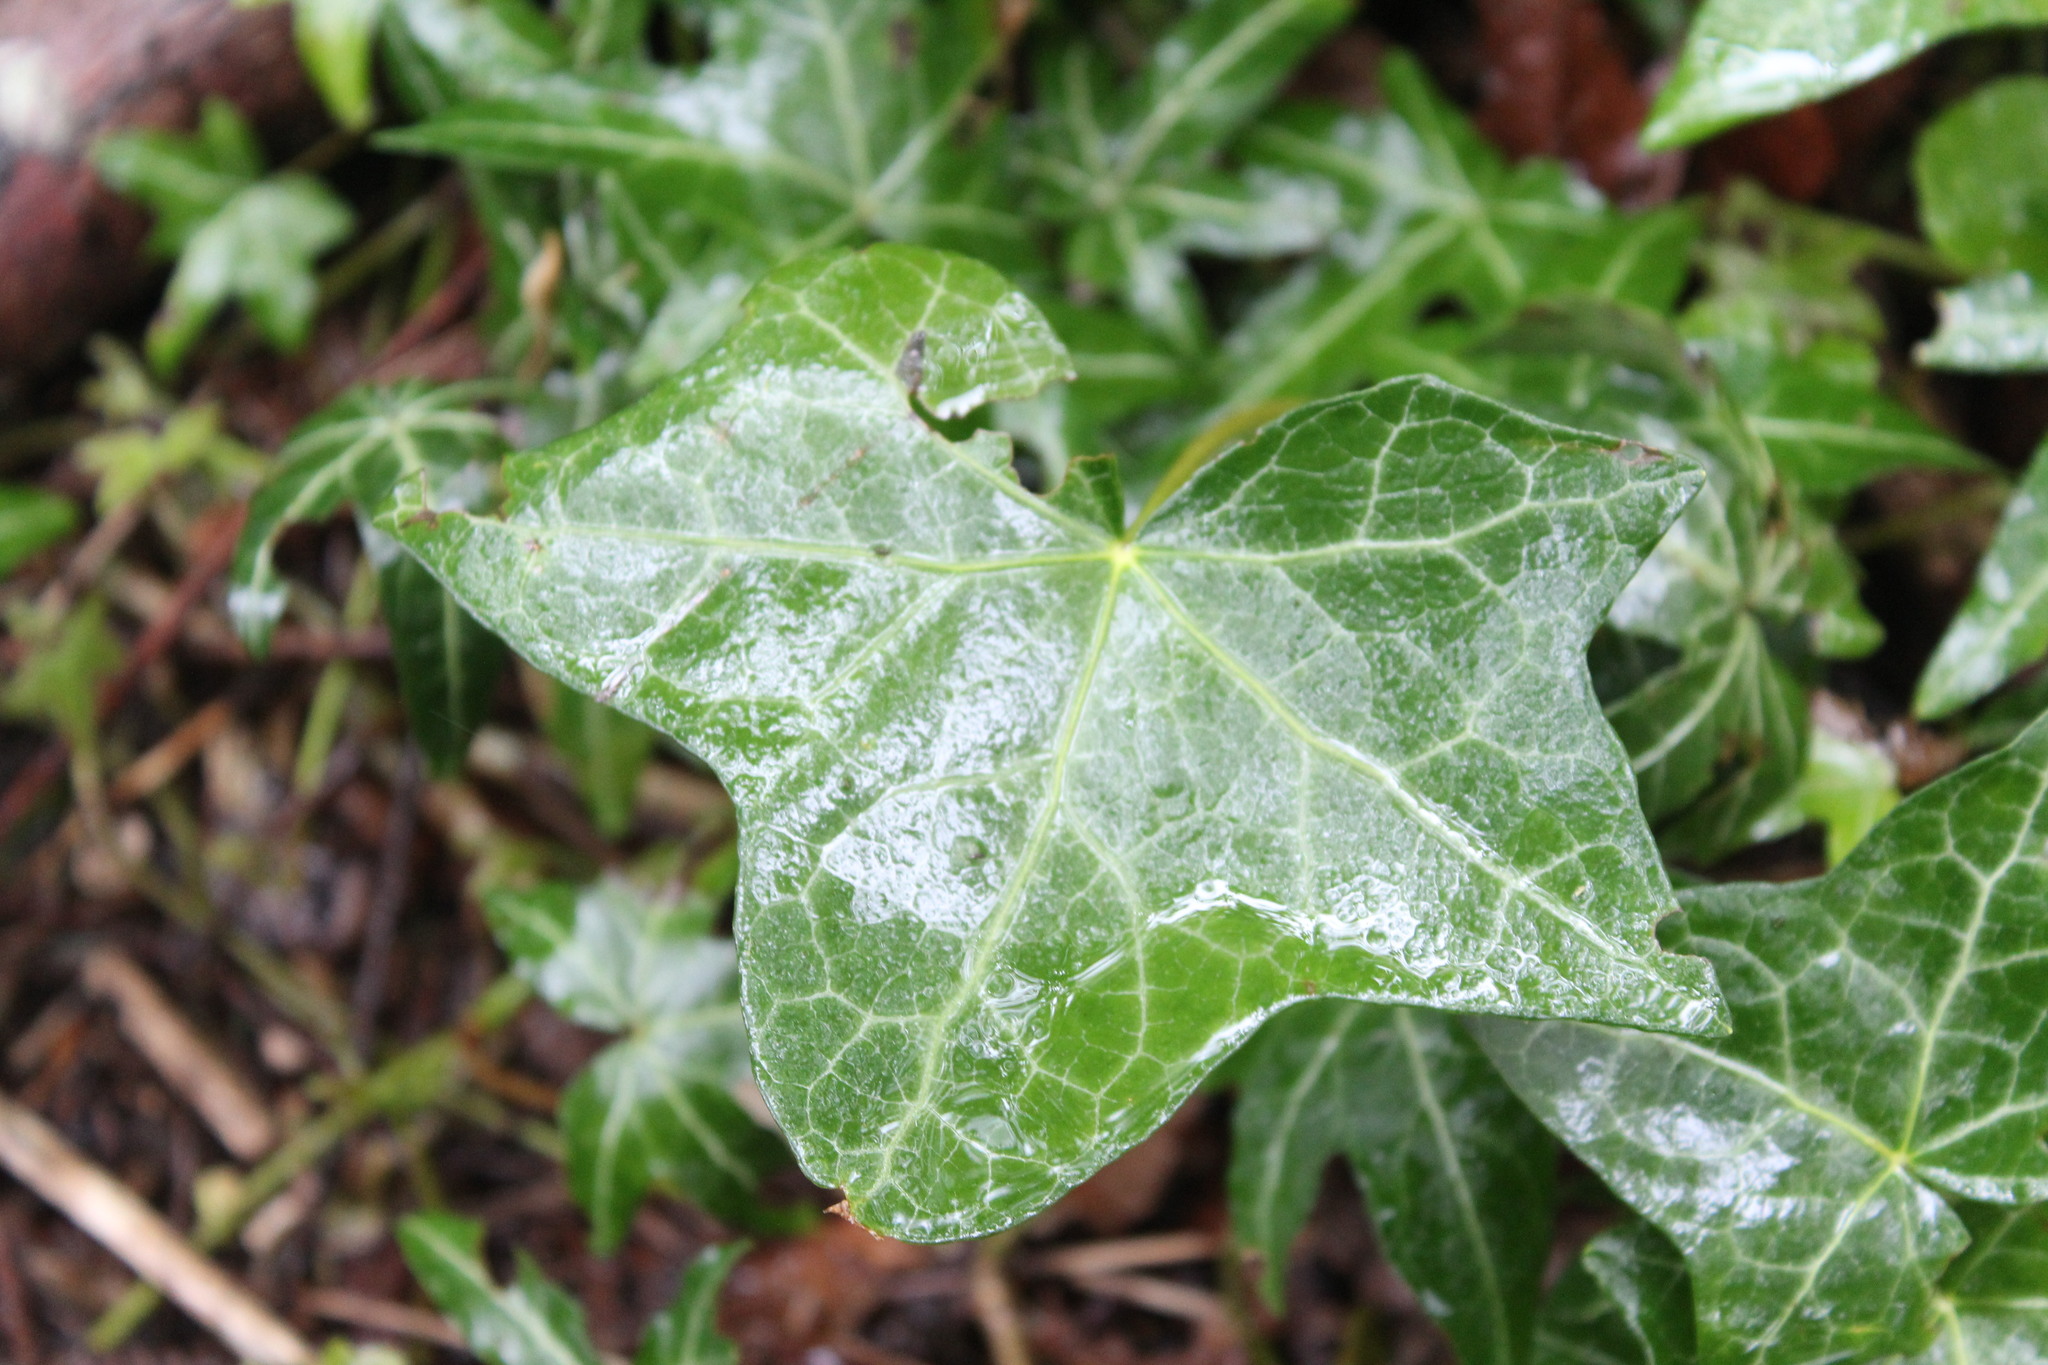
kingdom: Plantae
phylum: Tracheophyta
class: Magnoliopsida
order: Apiales
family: Araliaceae
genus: Hedera
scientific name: Hedera helix
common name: Ivy
